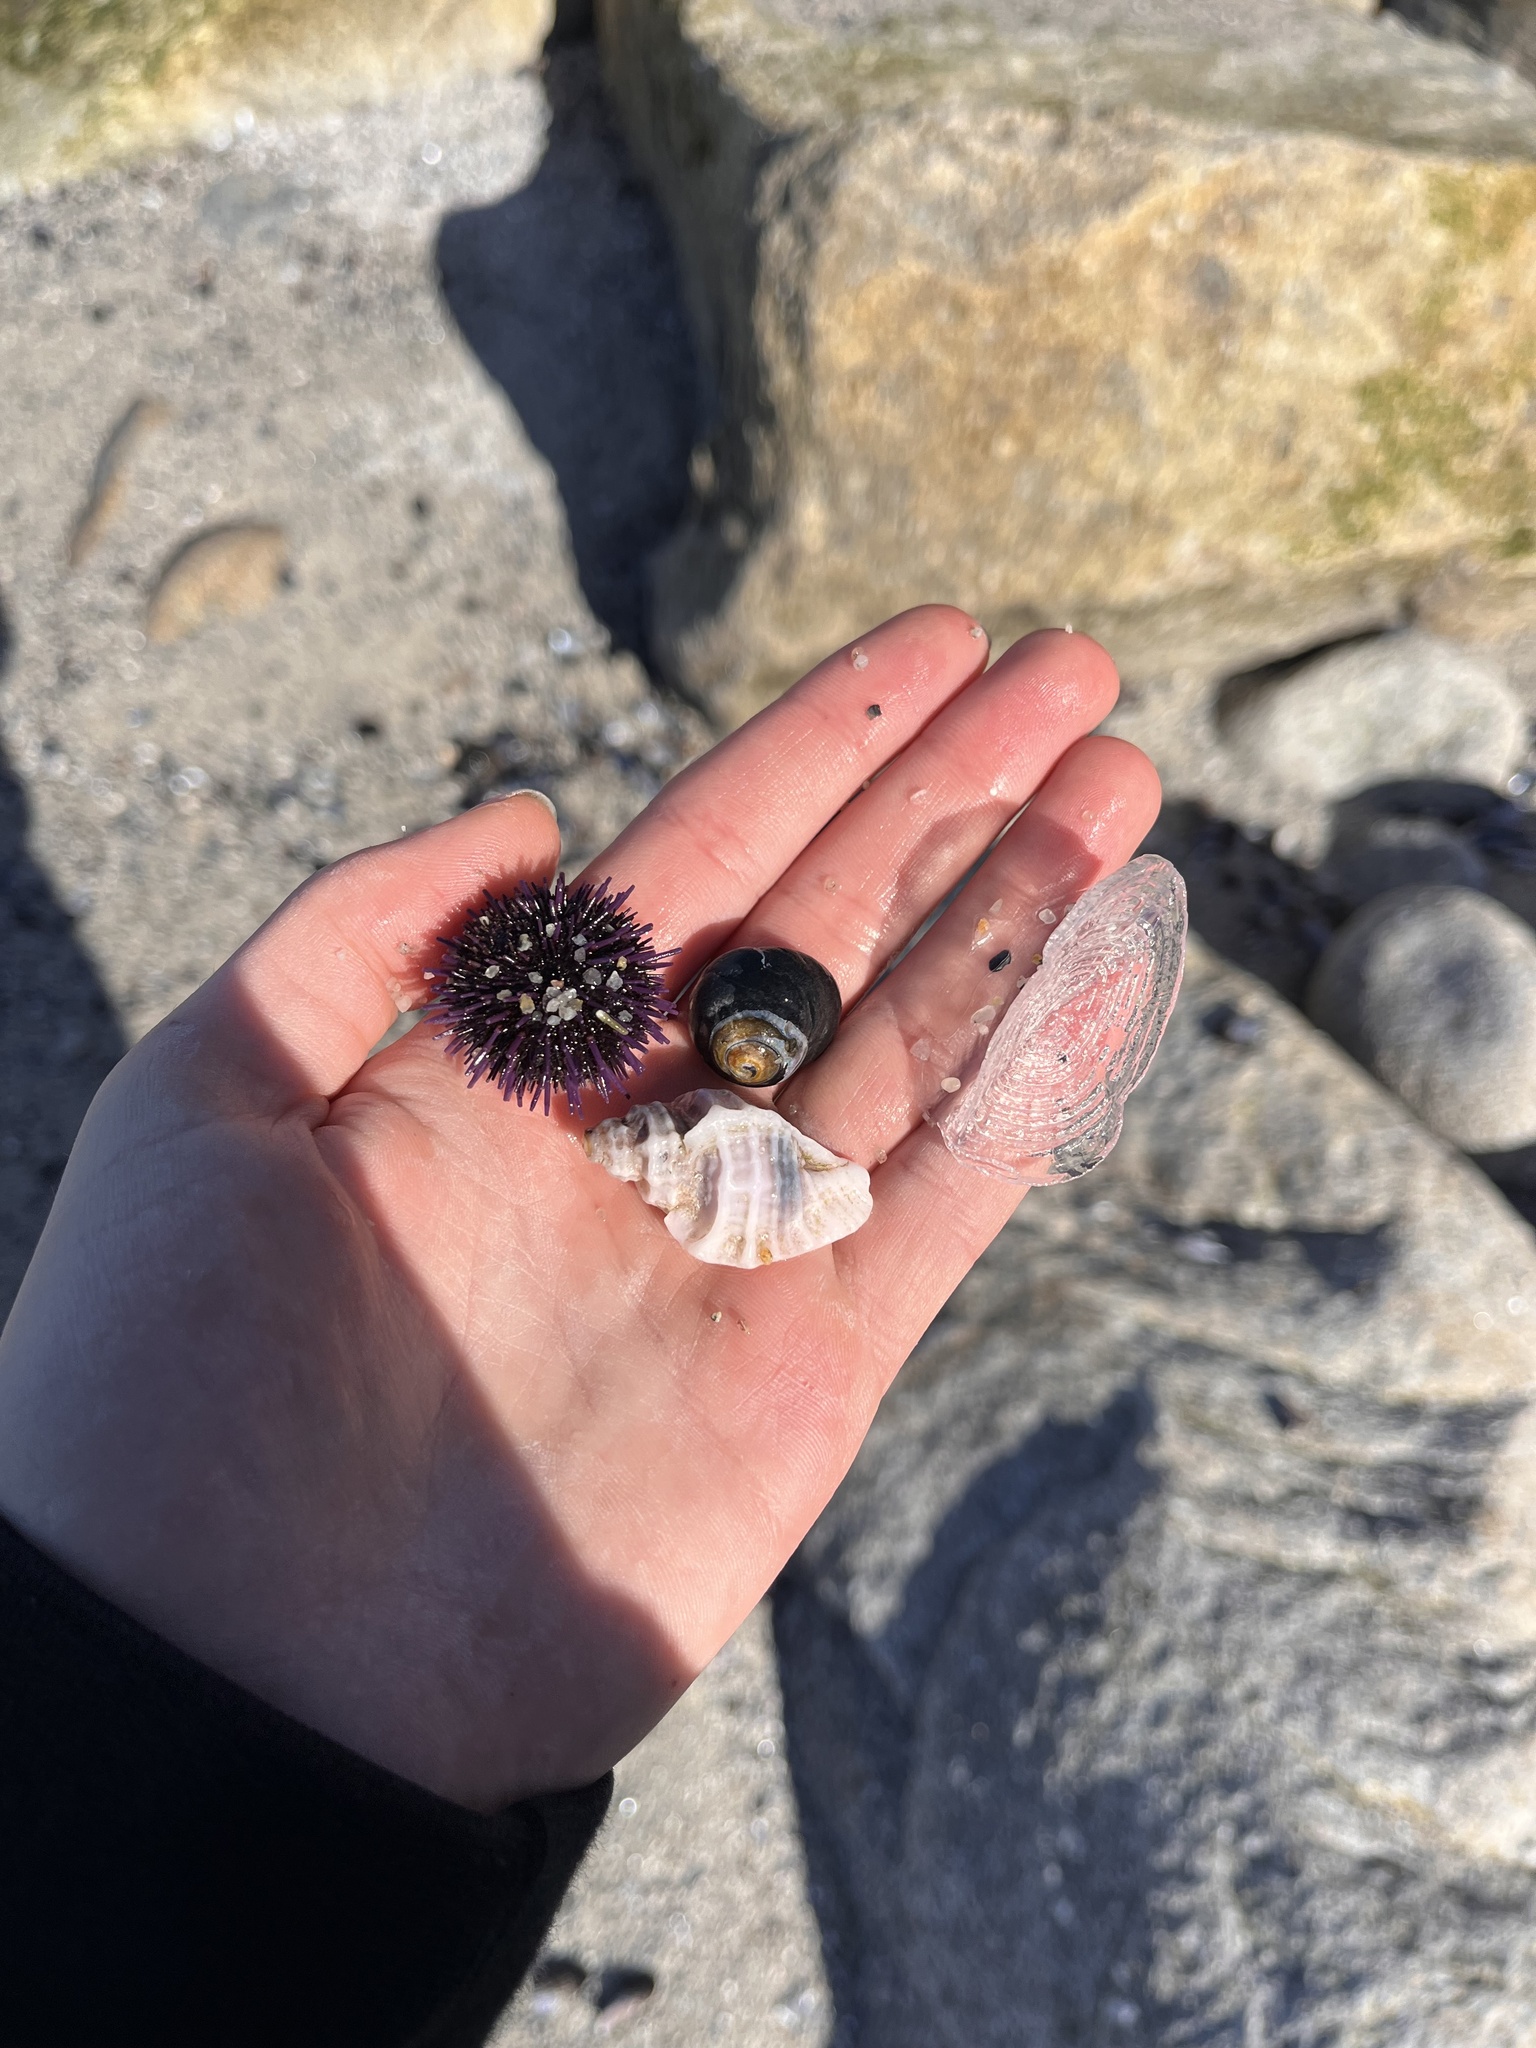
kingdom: Animalia
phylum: Mollusca
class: Gastropoda
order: Trochida
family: Tegulidae
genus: Tegula
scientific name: Tegula funebralis
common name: Black tegula
